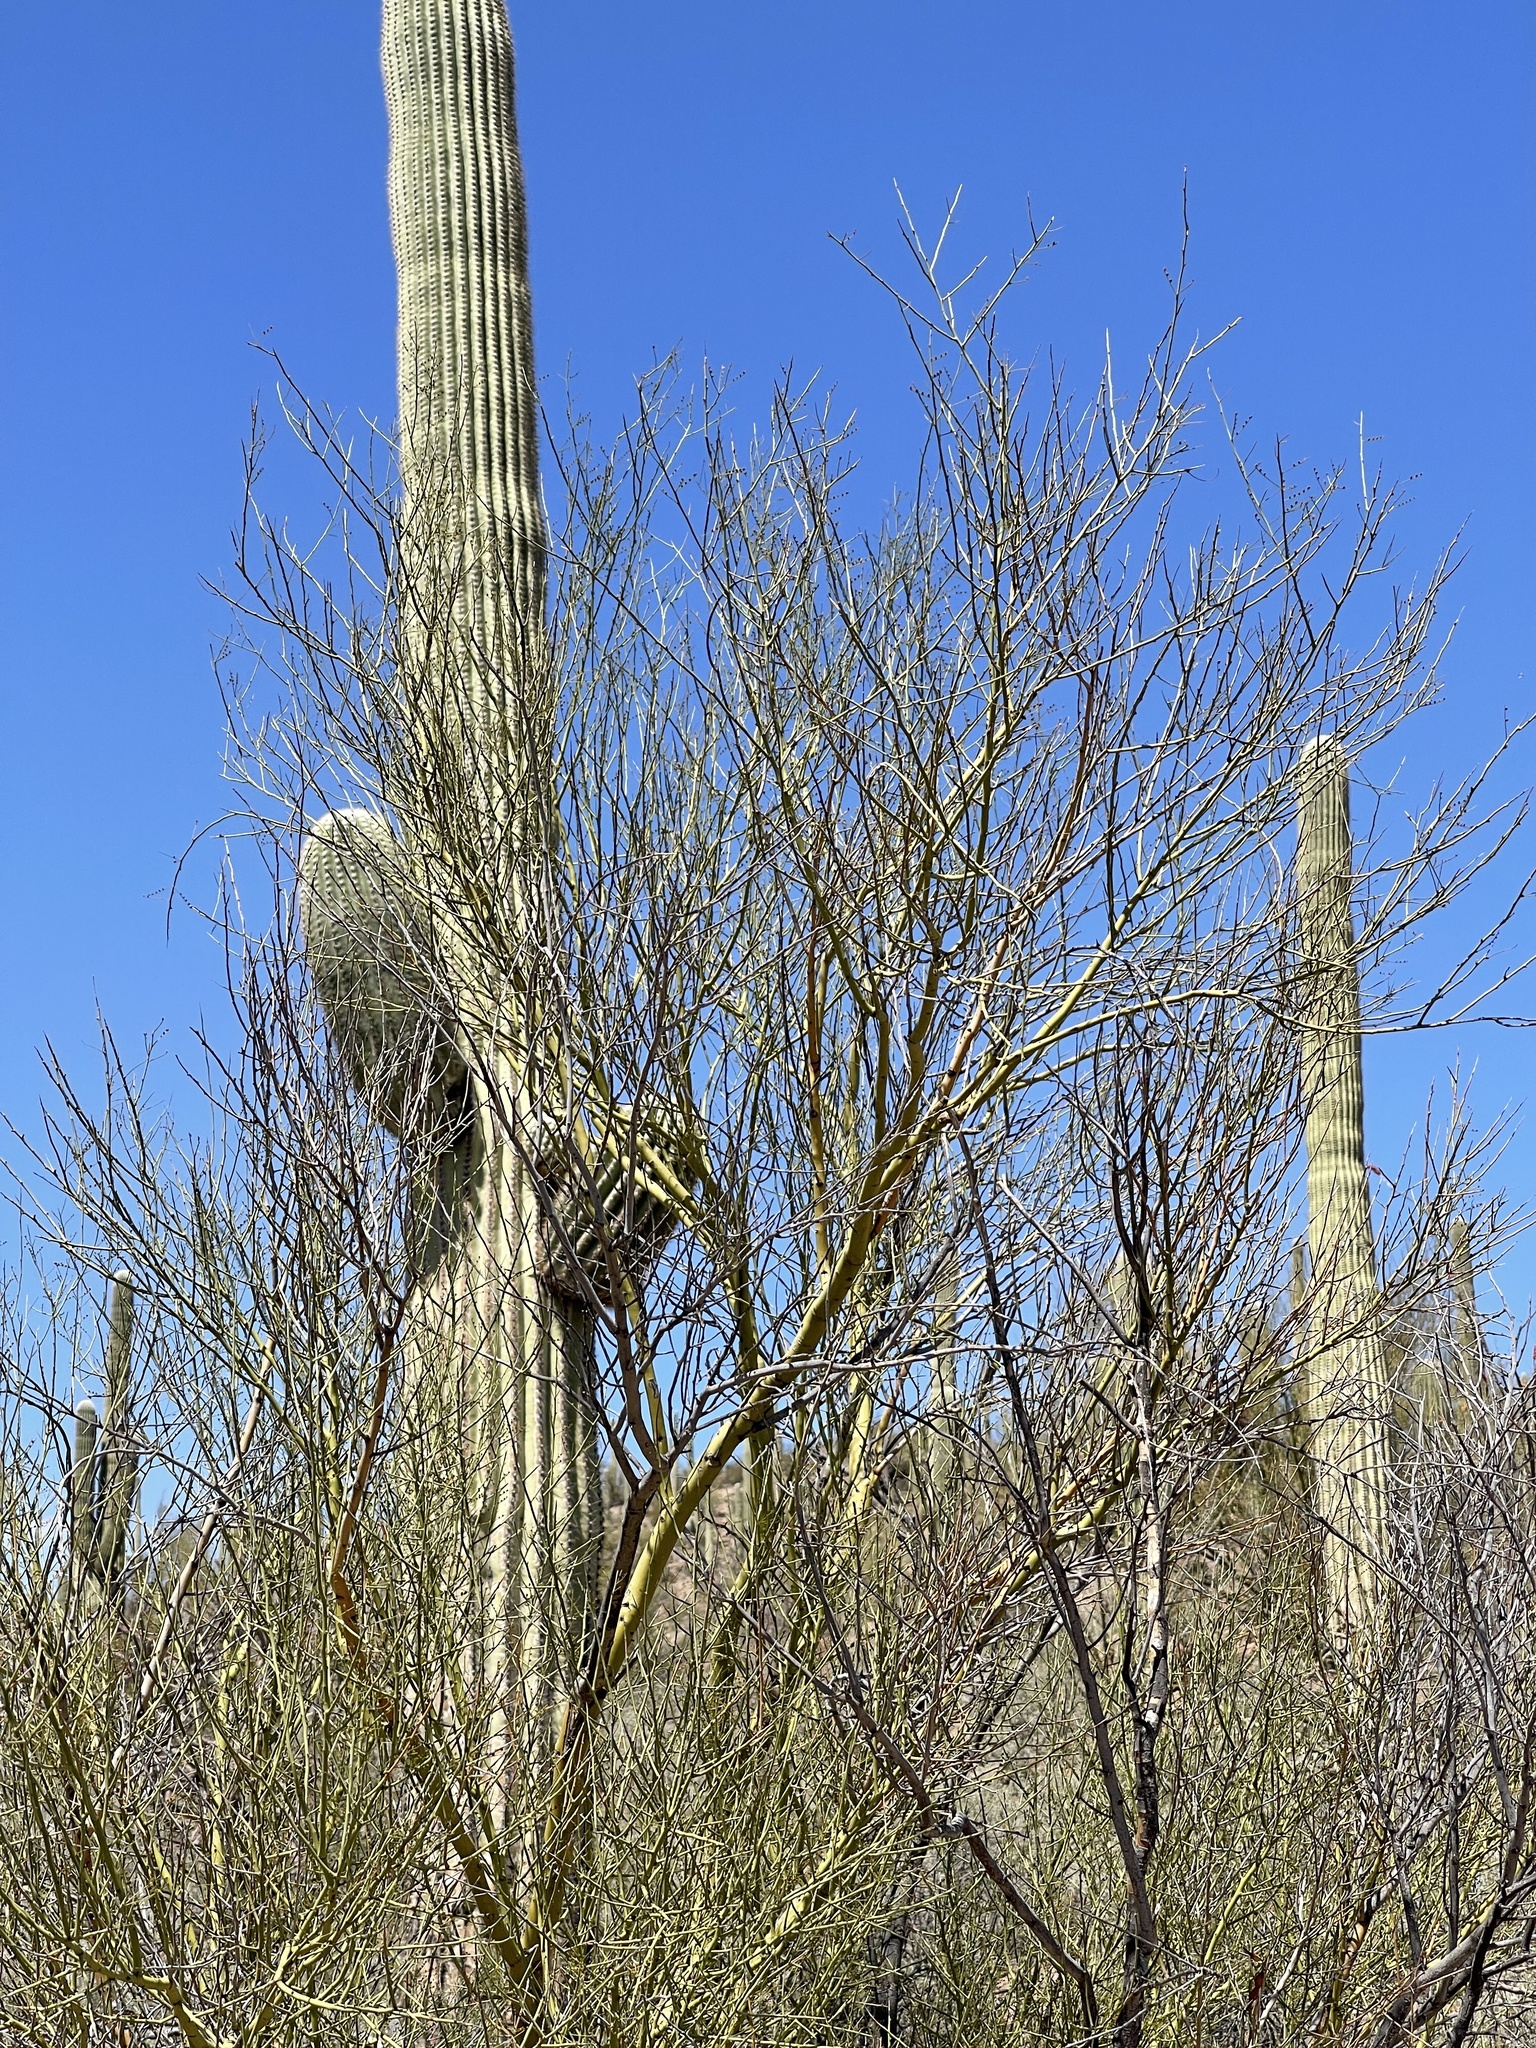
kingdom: Plantae
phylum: Tracheophyta
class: Magnoliopsida
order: Fabales
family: Fabaceae
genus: Parkinsonia
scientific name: Parkinsonia microphylla
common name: Yellow paloverde
